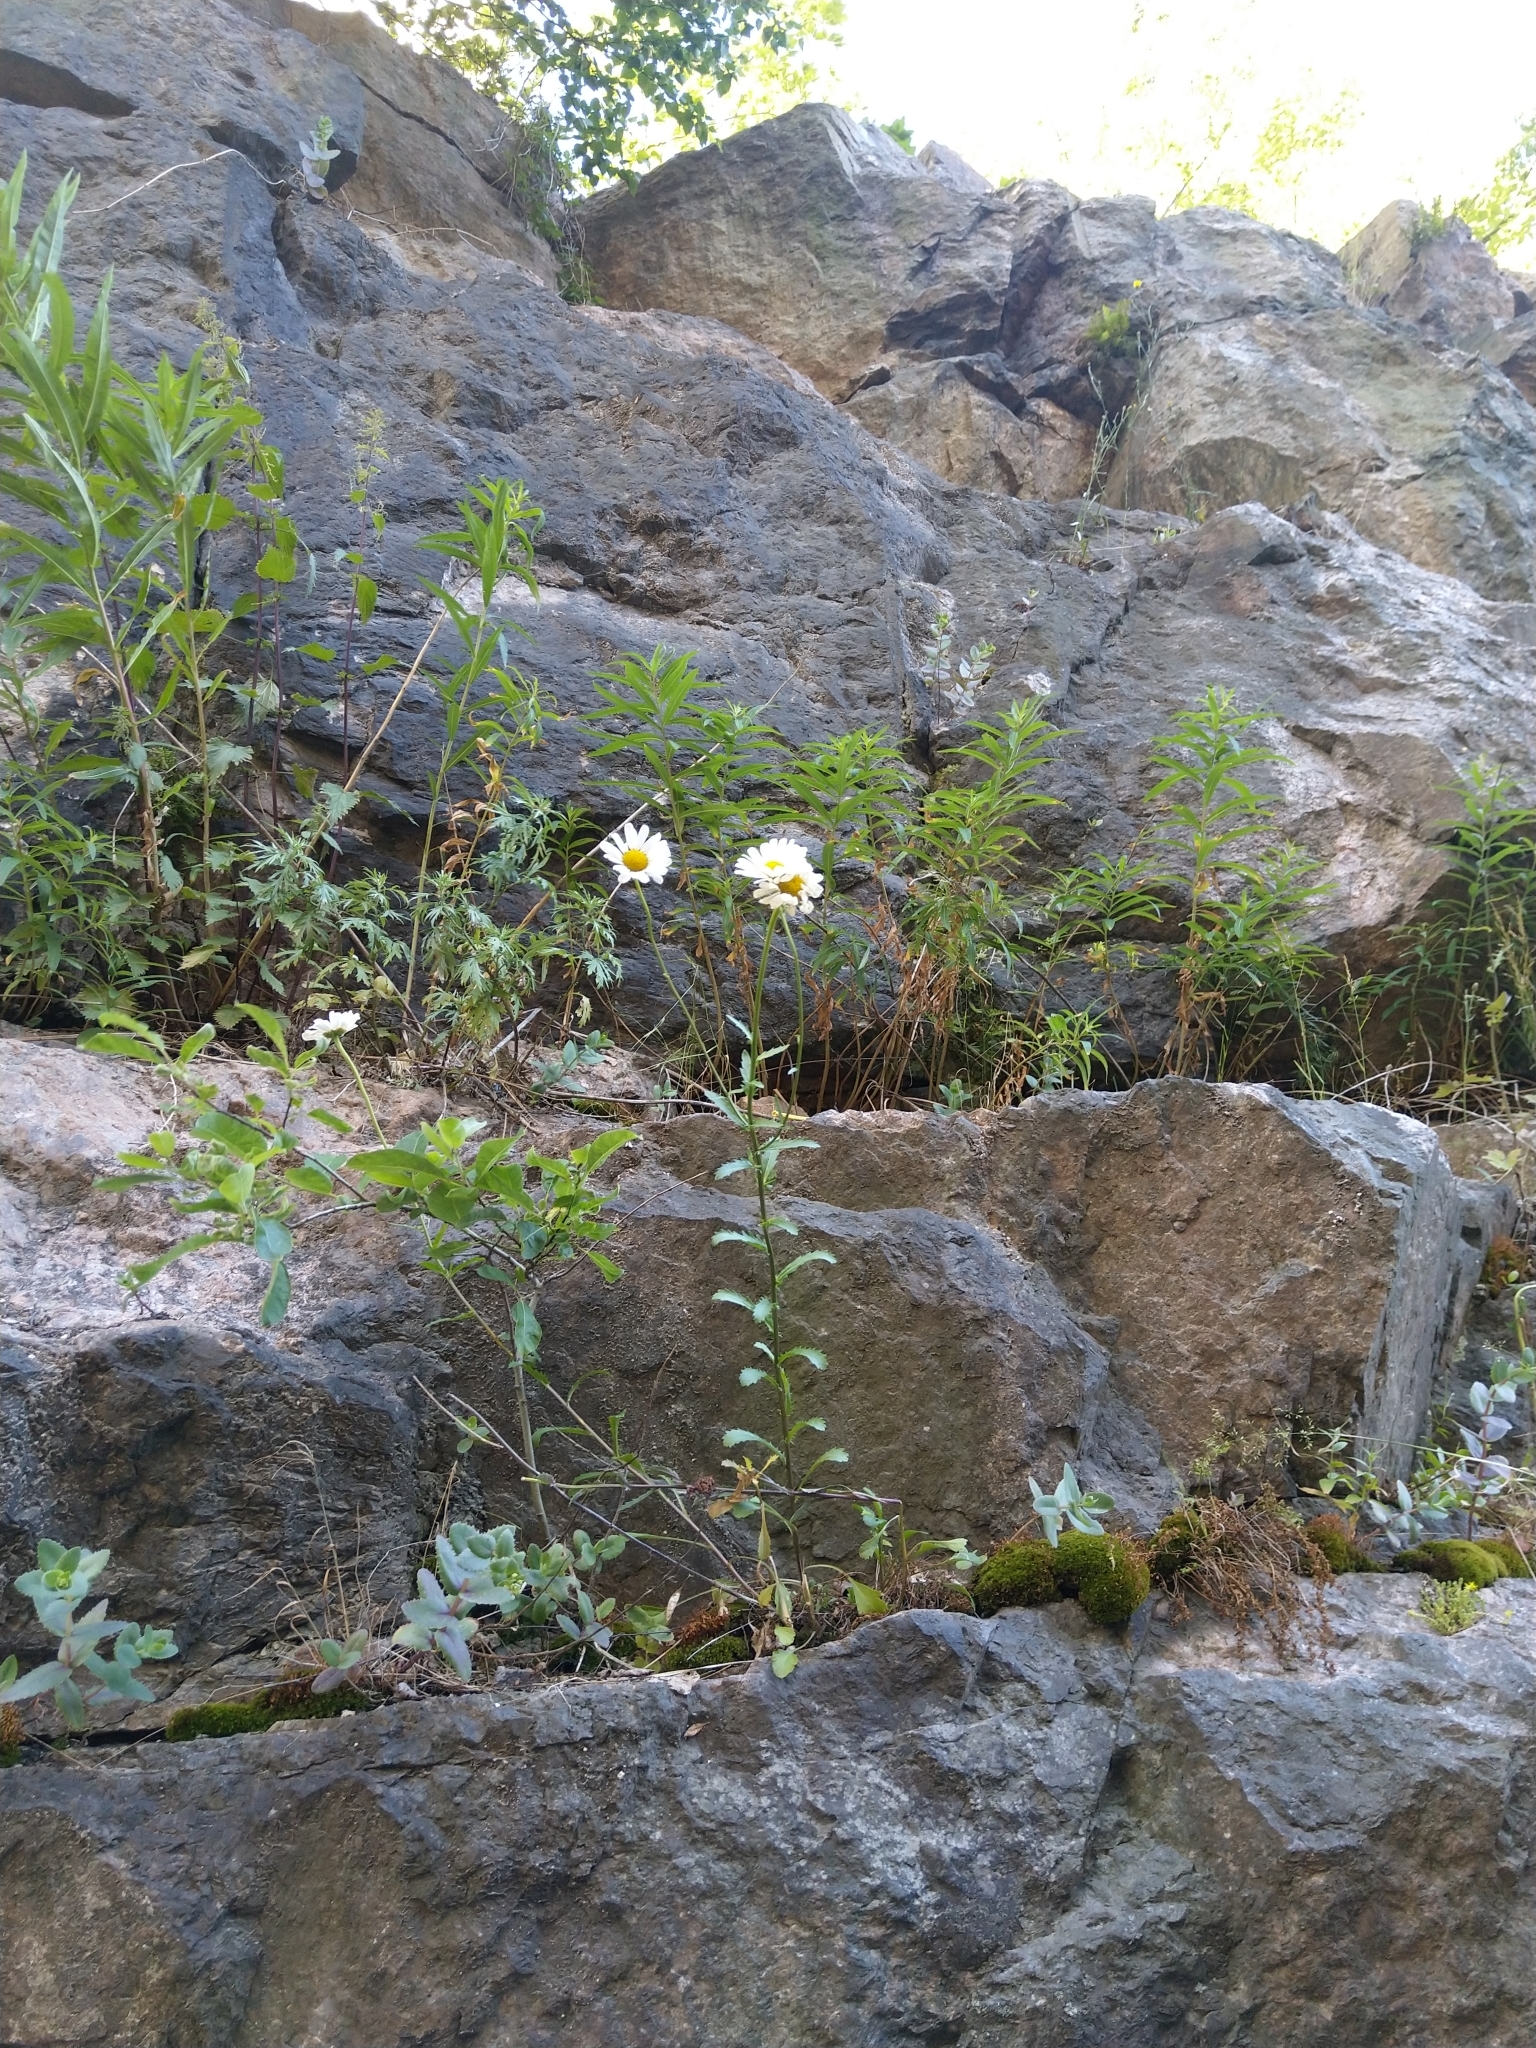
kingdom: Plantae
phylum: Tracheophyta
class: Magnoliopsida
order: Asterales
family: Asteraceae
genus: Leucanthemum
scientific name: Leucanthemum vulgare
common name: Oxeye daisy
